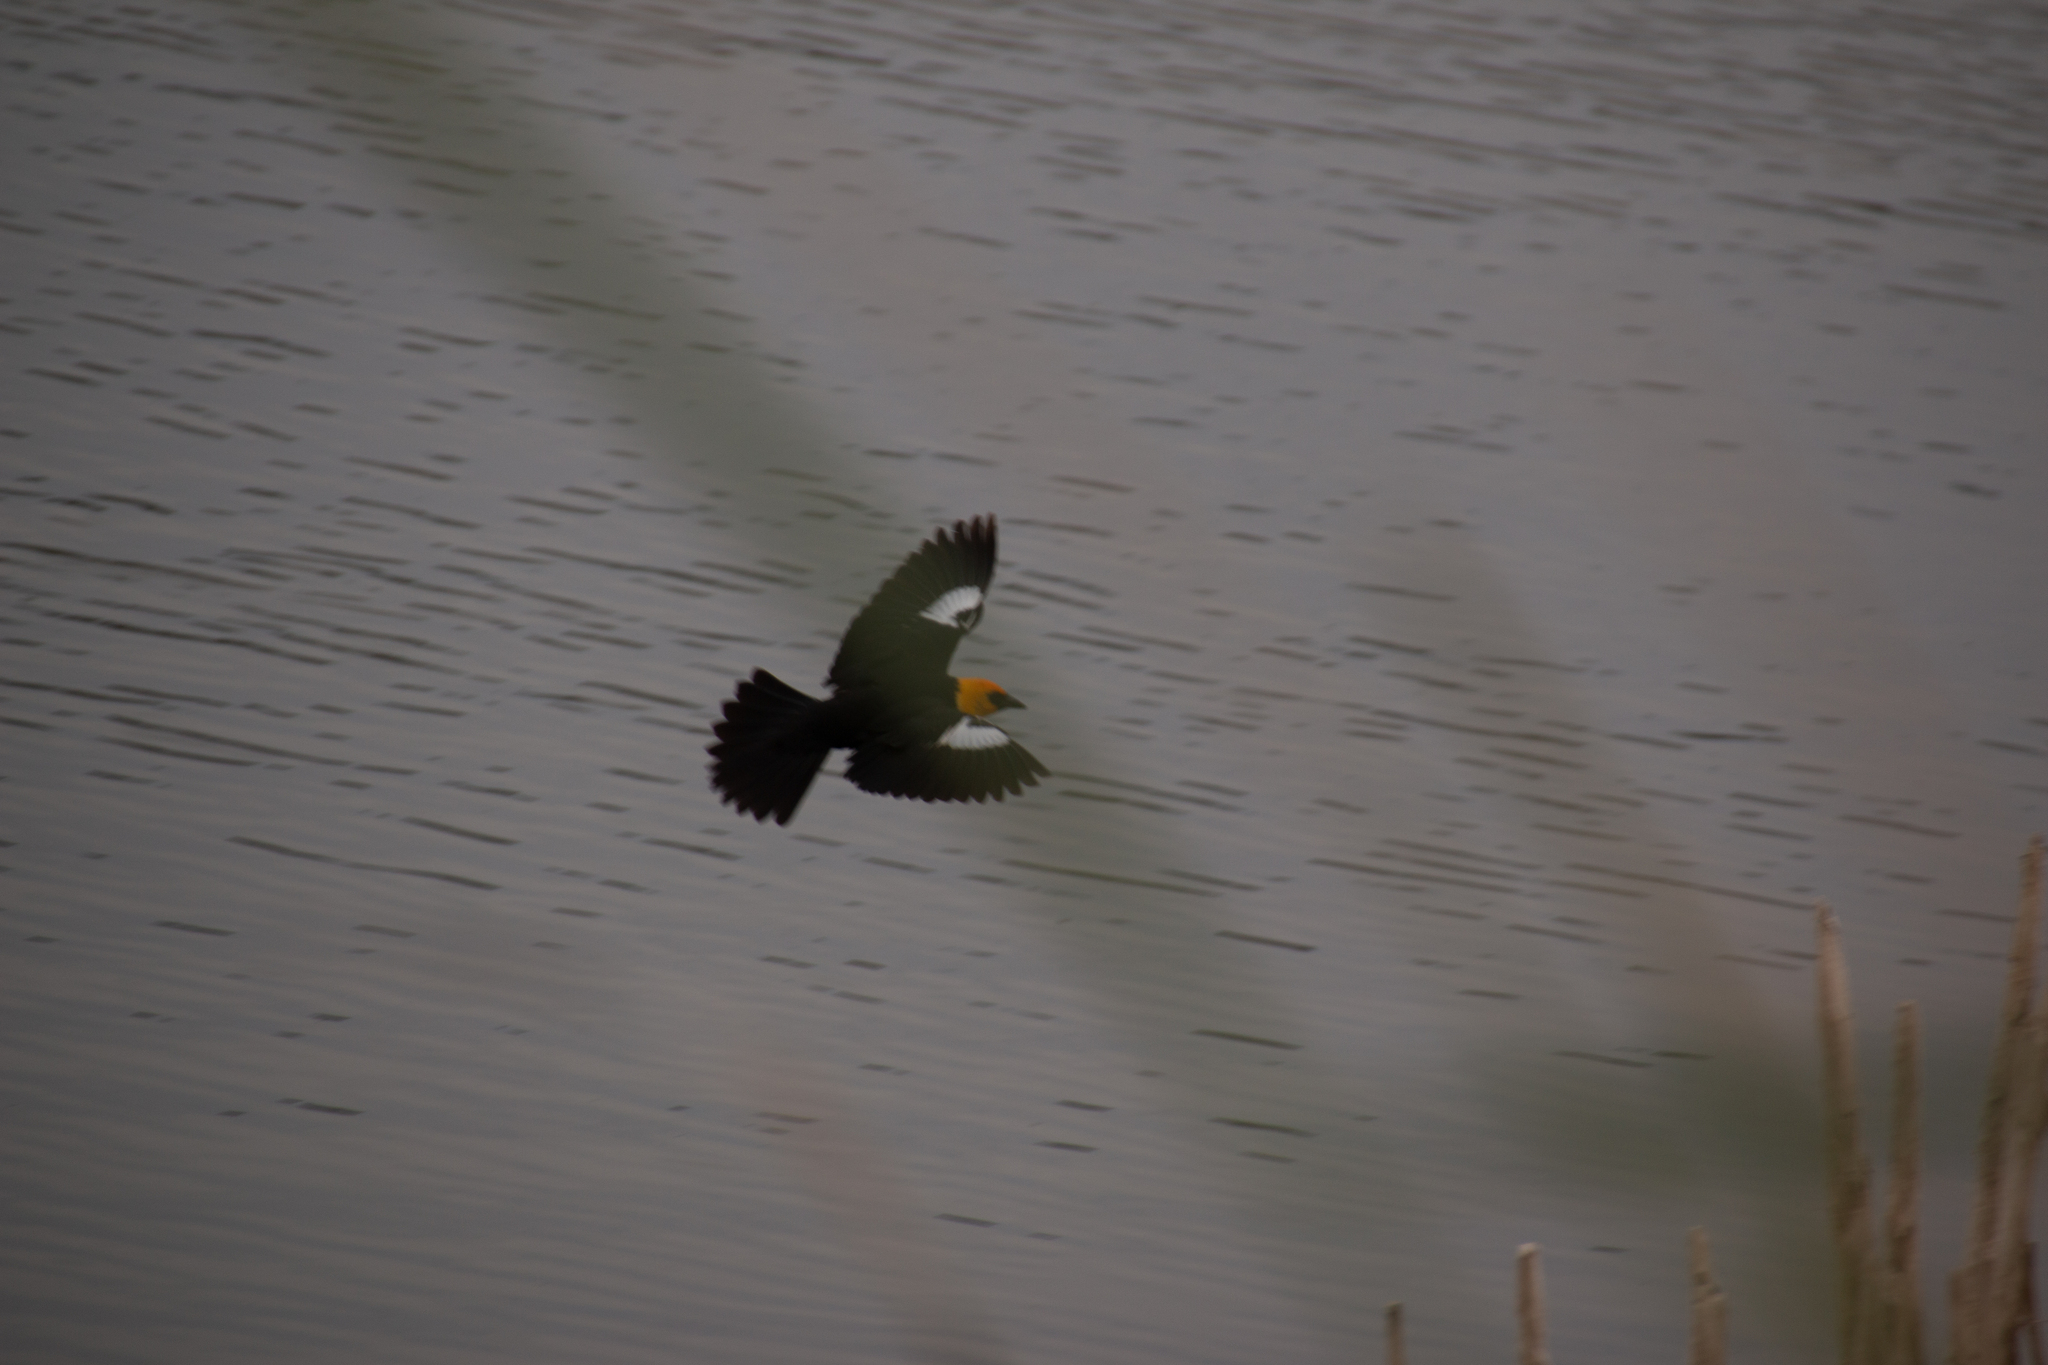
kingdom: Animalia
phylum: Chordata
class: Aves
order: Passeriformes
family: Icteridae
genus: Xanthocephalus
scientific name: Xanthocephalus xanthocephalus
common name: Yellow-headed blackbird
